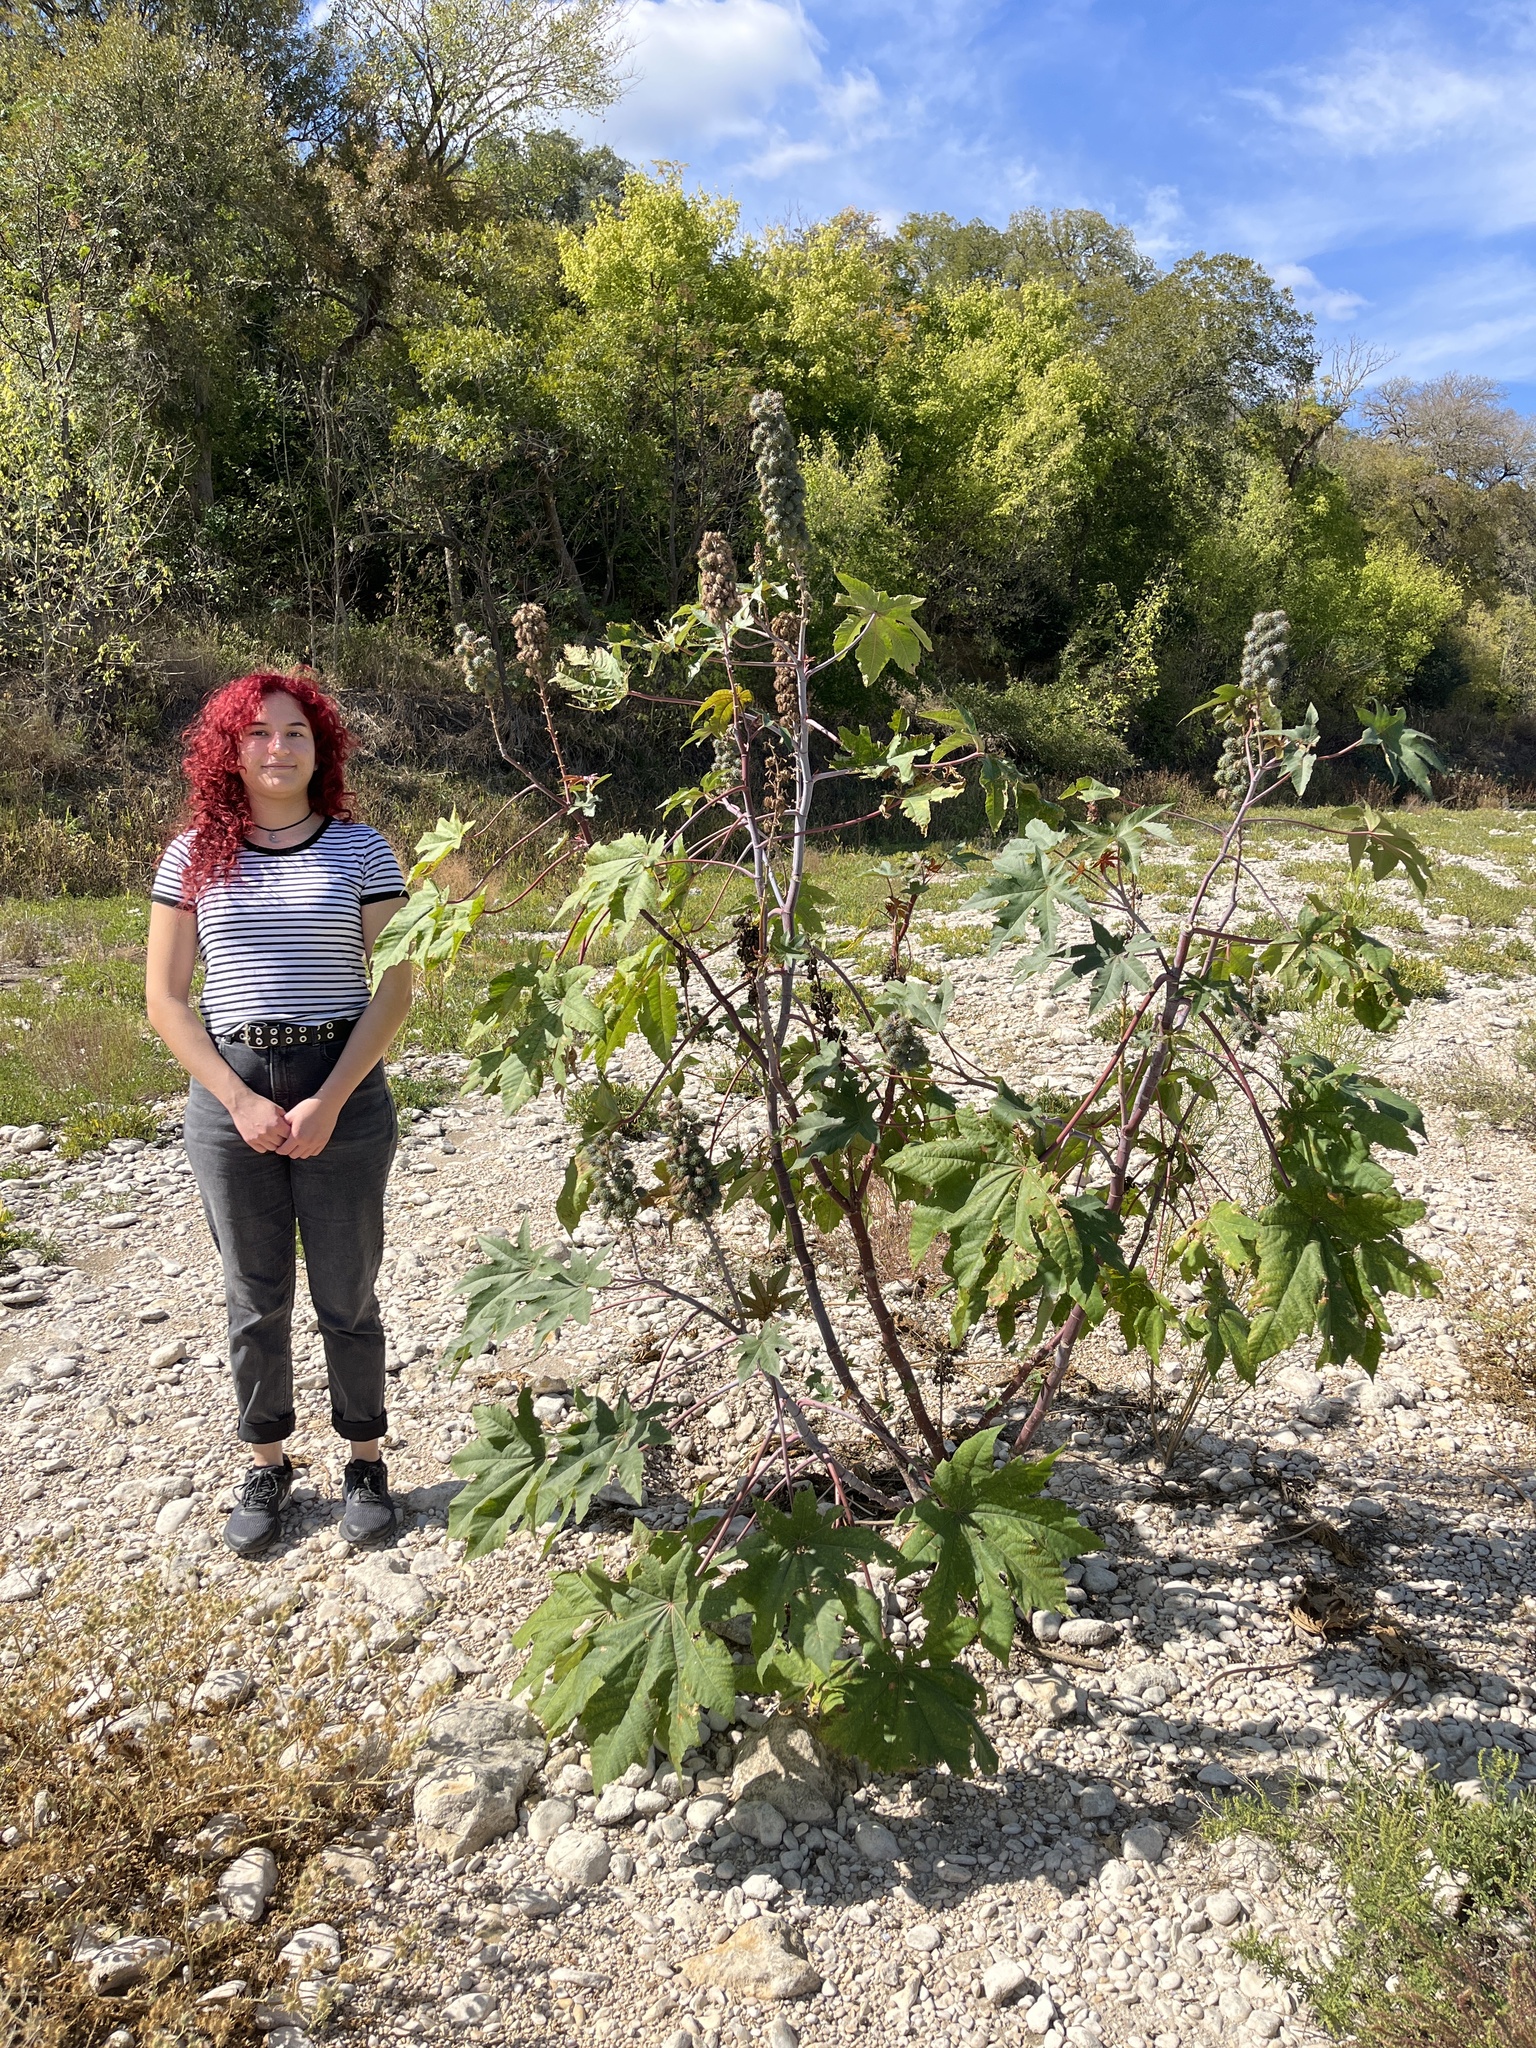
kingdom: Plantae
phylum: Tracheophyta
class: Magnoliopsida
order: Malpighiales
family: Euphorbiaceae
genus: Ricinus
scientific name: Ricinus communis
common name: Castor-oil-plant
